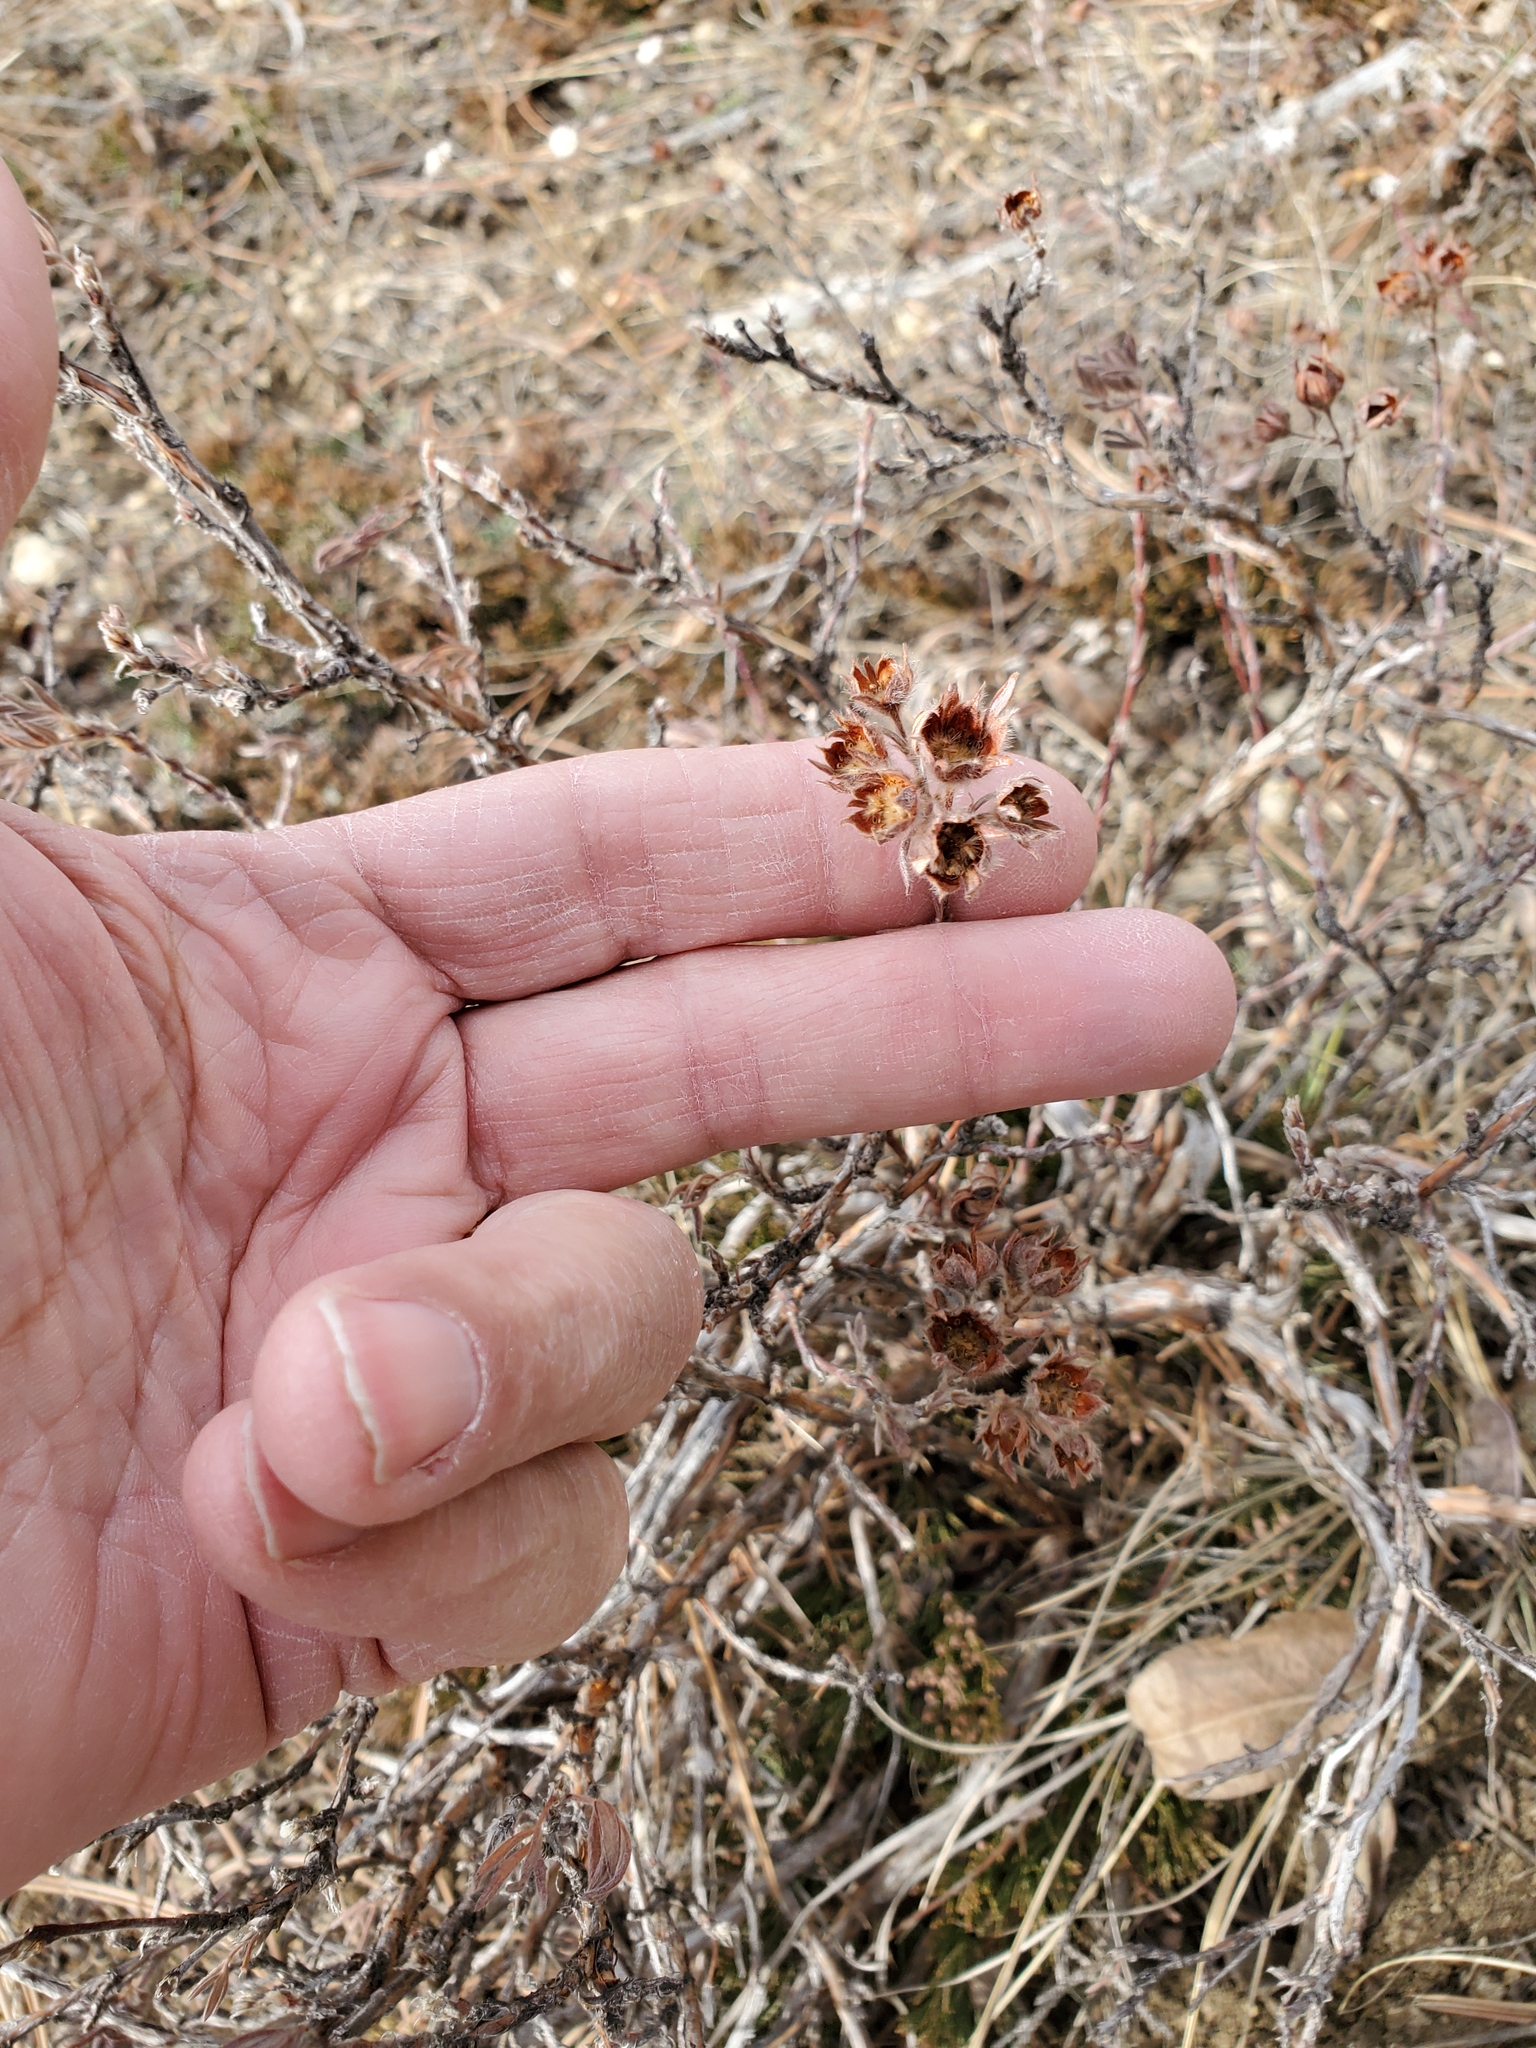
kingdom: Plantae
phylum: Tracheophyta
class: Magnoliopsida
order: Rosales
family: Rosaceae
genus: Dasiphora
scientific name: Dasiphora fruticosa
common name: Shrubby cinquefoil
